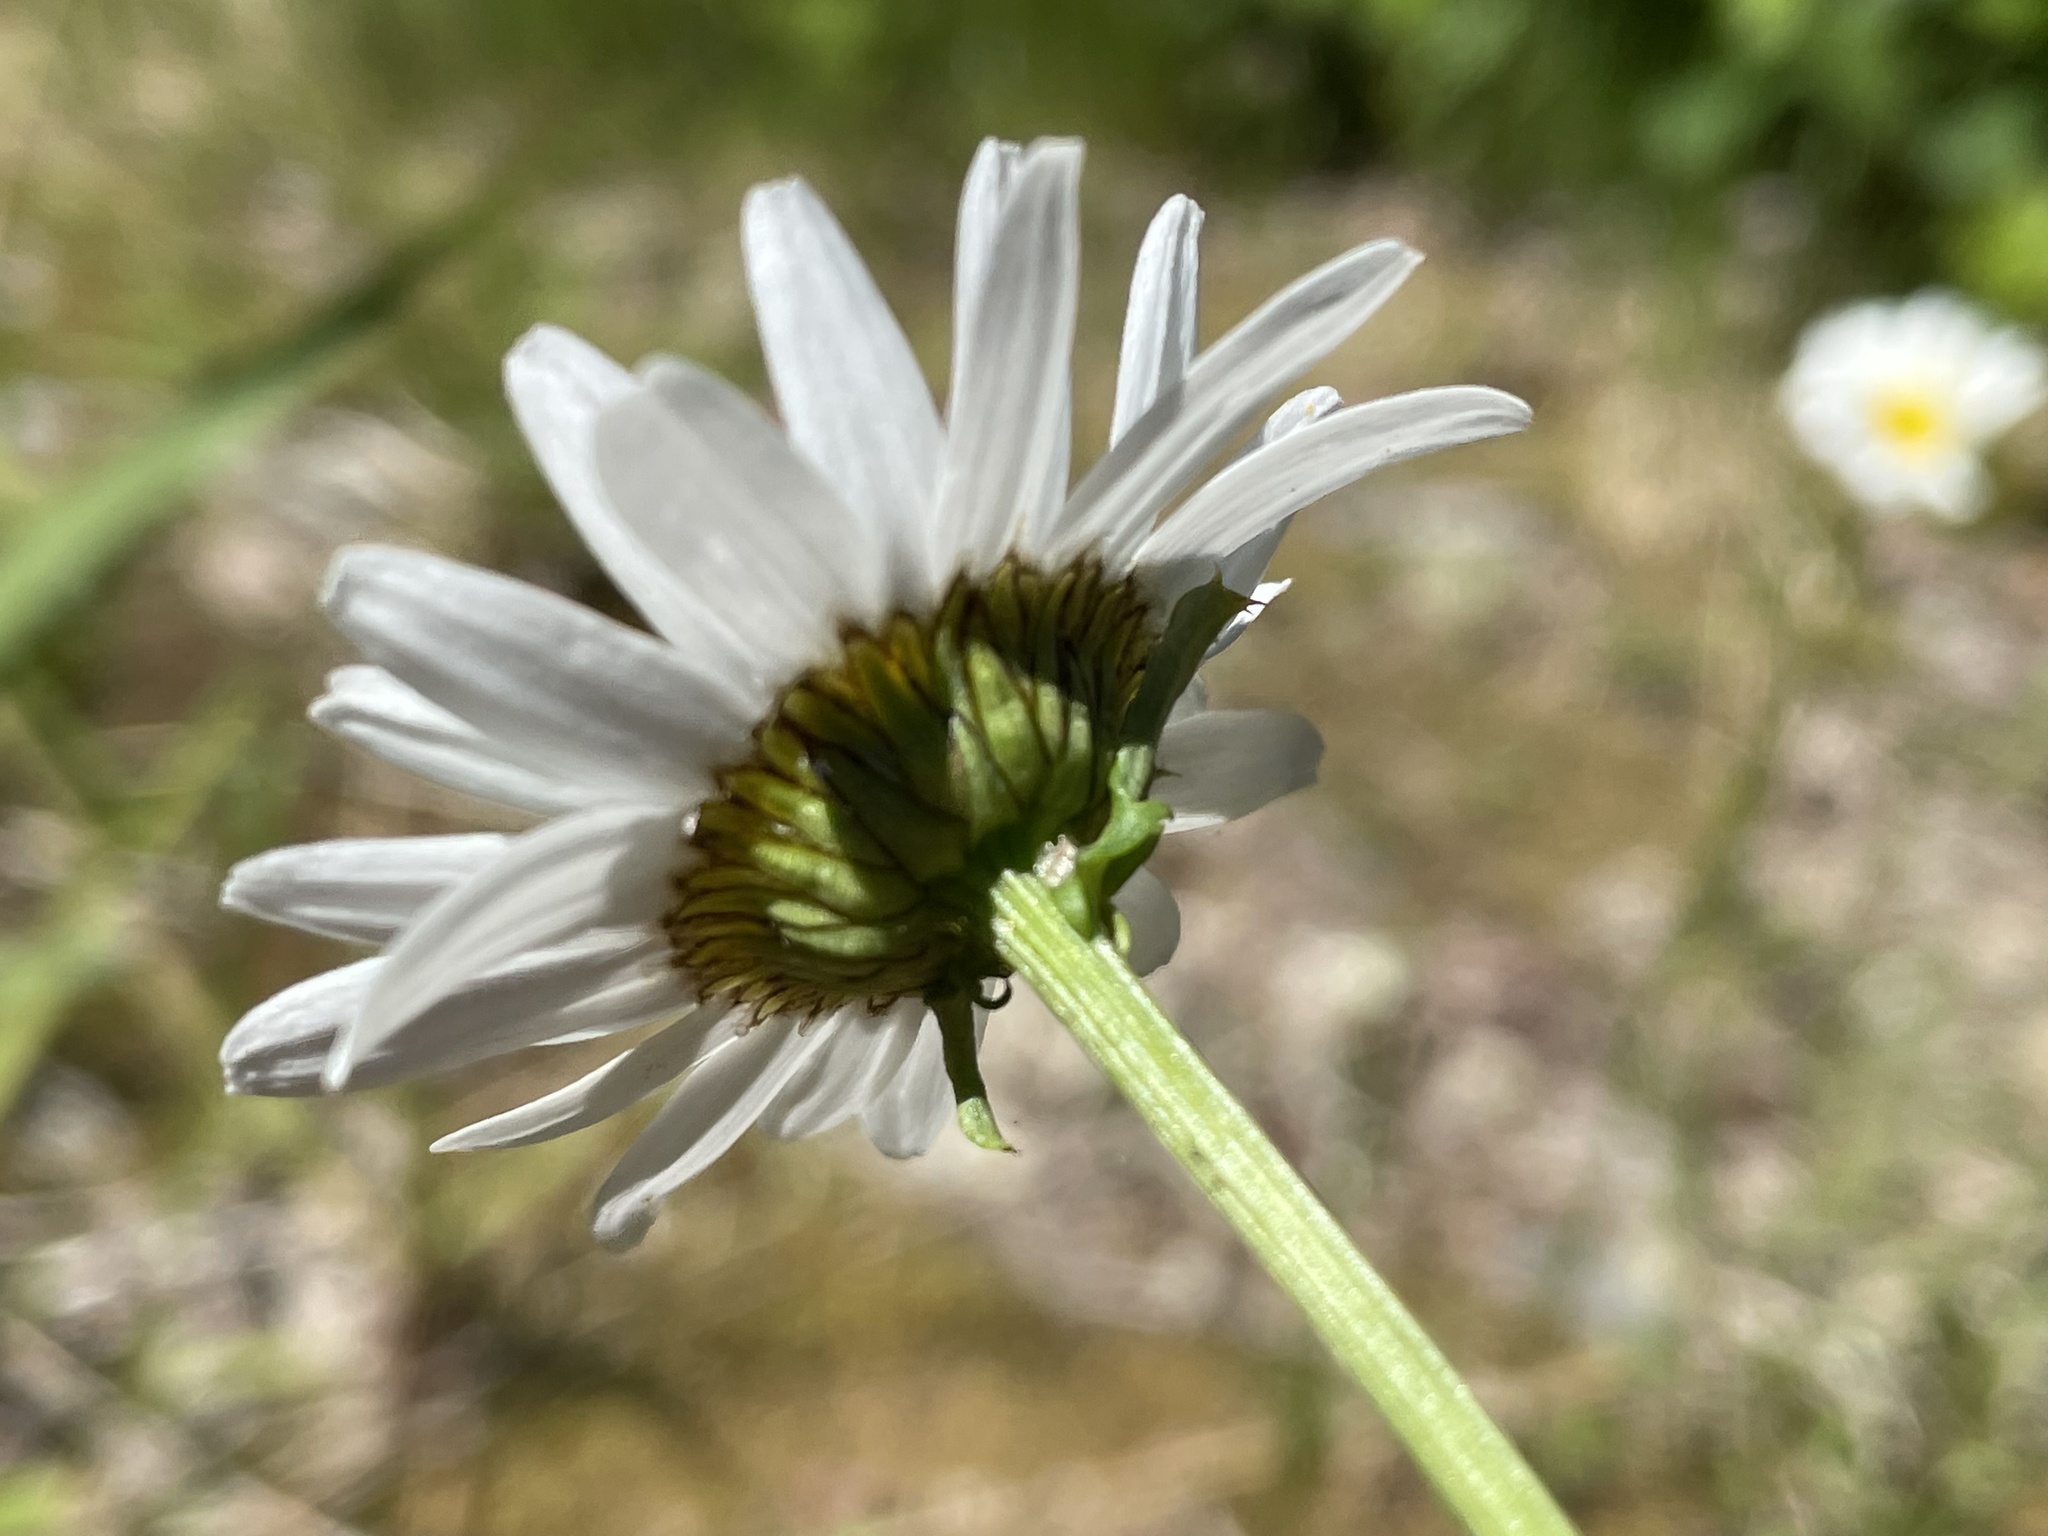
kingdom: Plantae
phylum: Tracheophyta
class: Magnoliopsida
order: Asterales
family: Asteraceae
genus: Leucanthemum
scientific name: Leucanthemum vulgare
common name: Oxeye daisy
